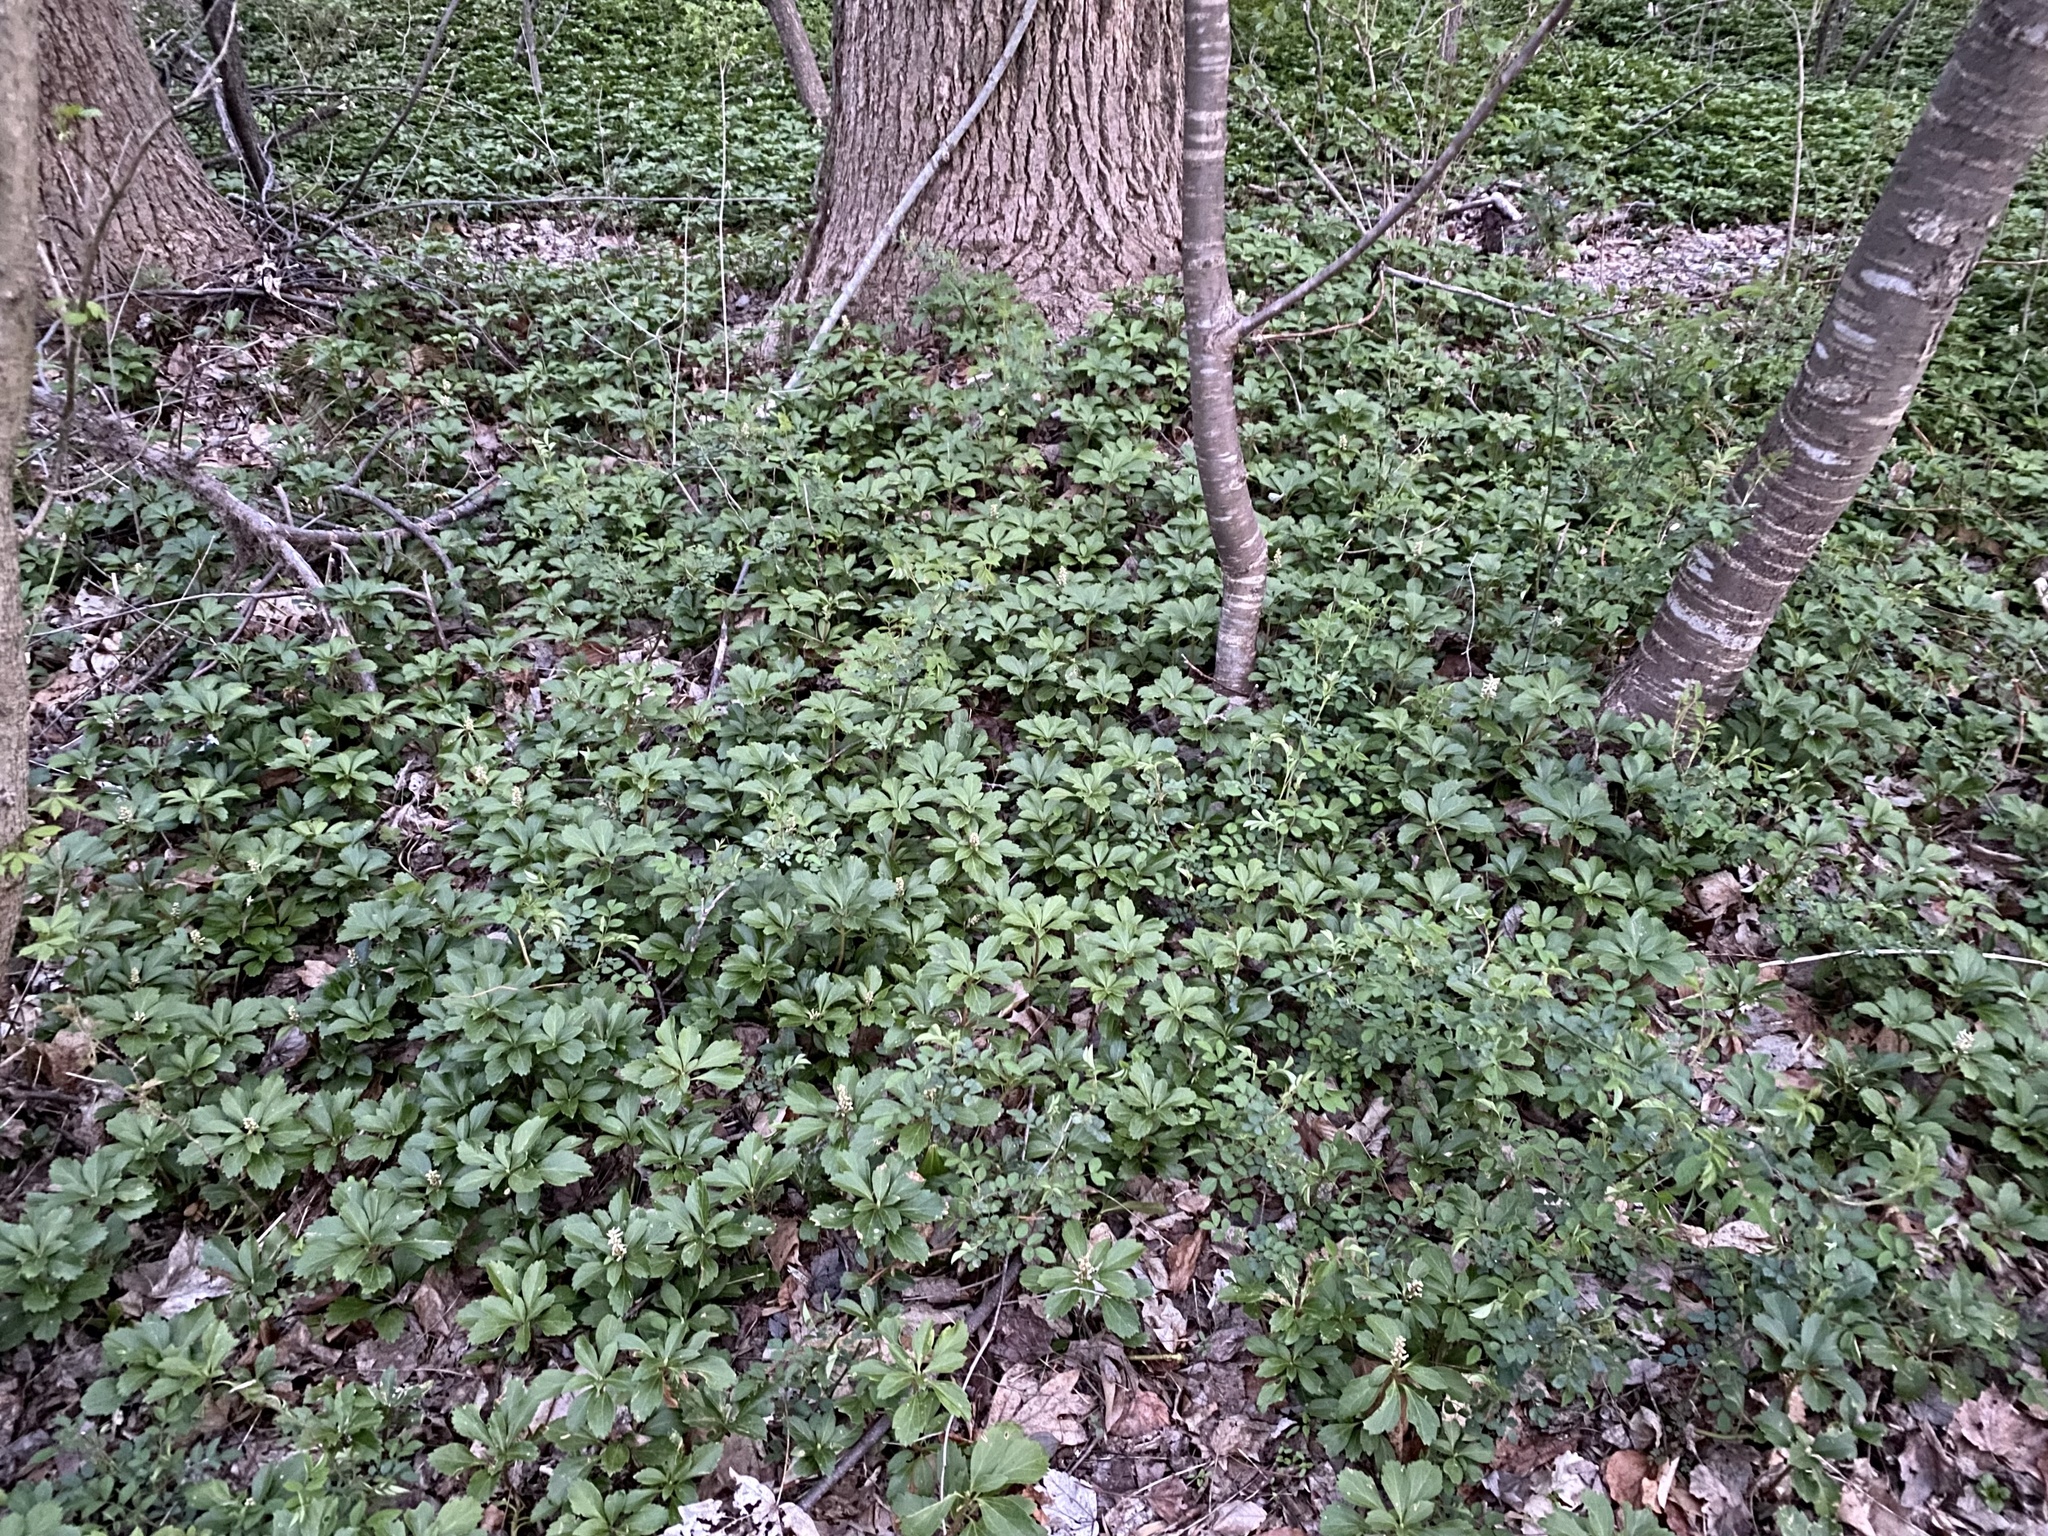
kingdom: Plantae
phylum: Tracheophyta
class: Magnoliopsida
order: Buxales
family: Buxaceae
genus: Pachysandra
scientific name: Pachysandra terminalis
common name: Japanese pachysandra
